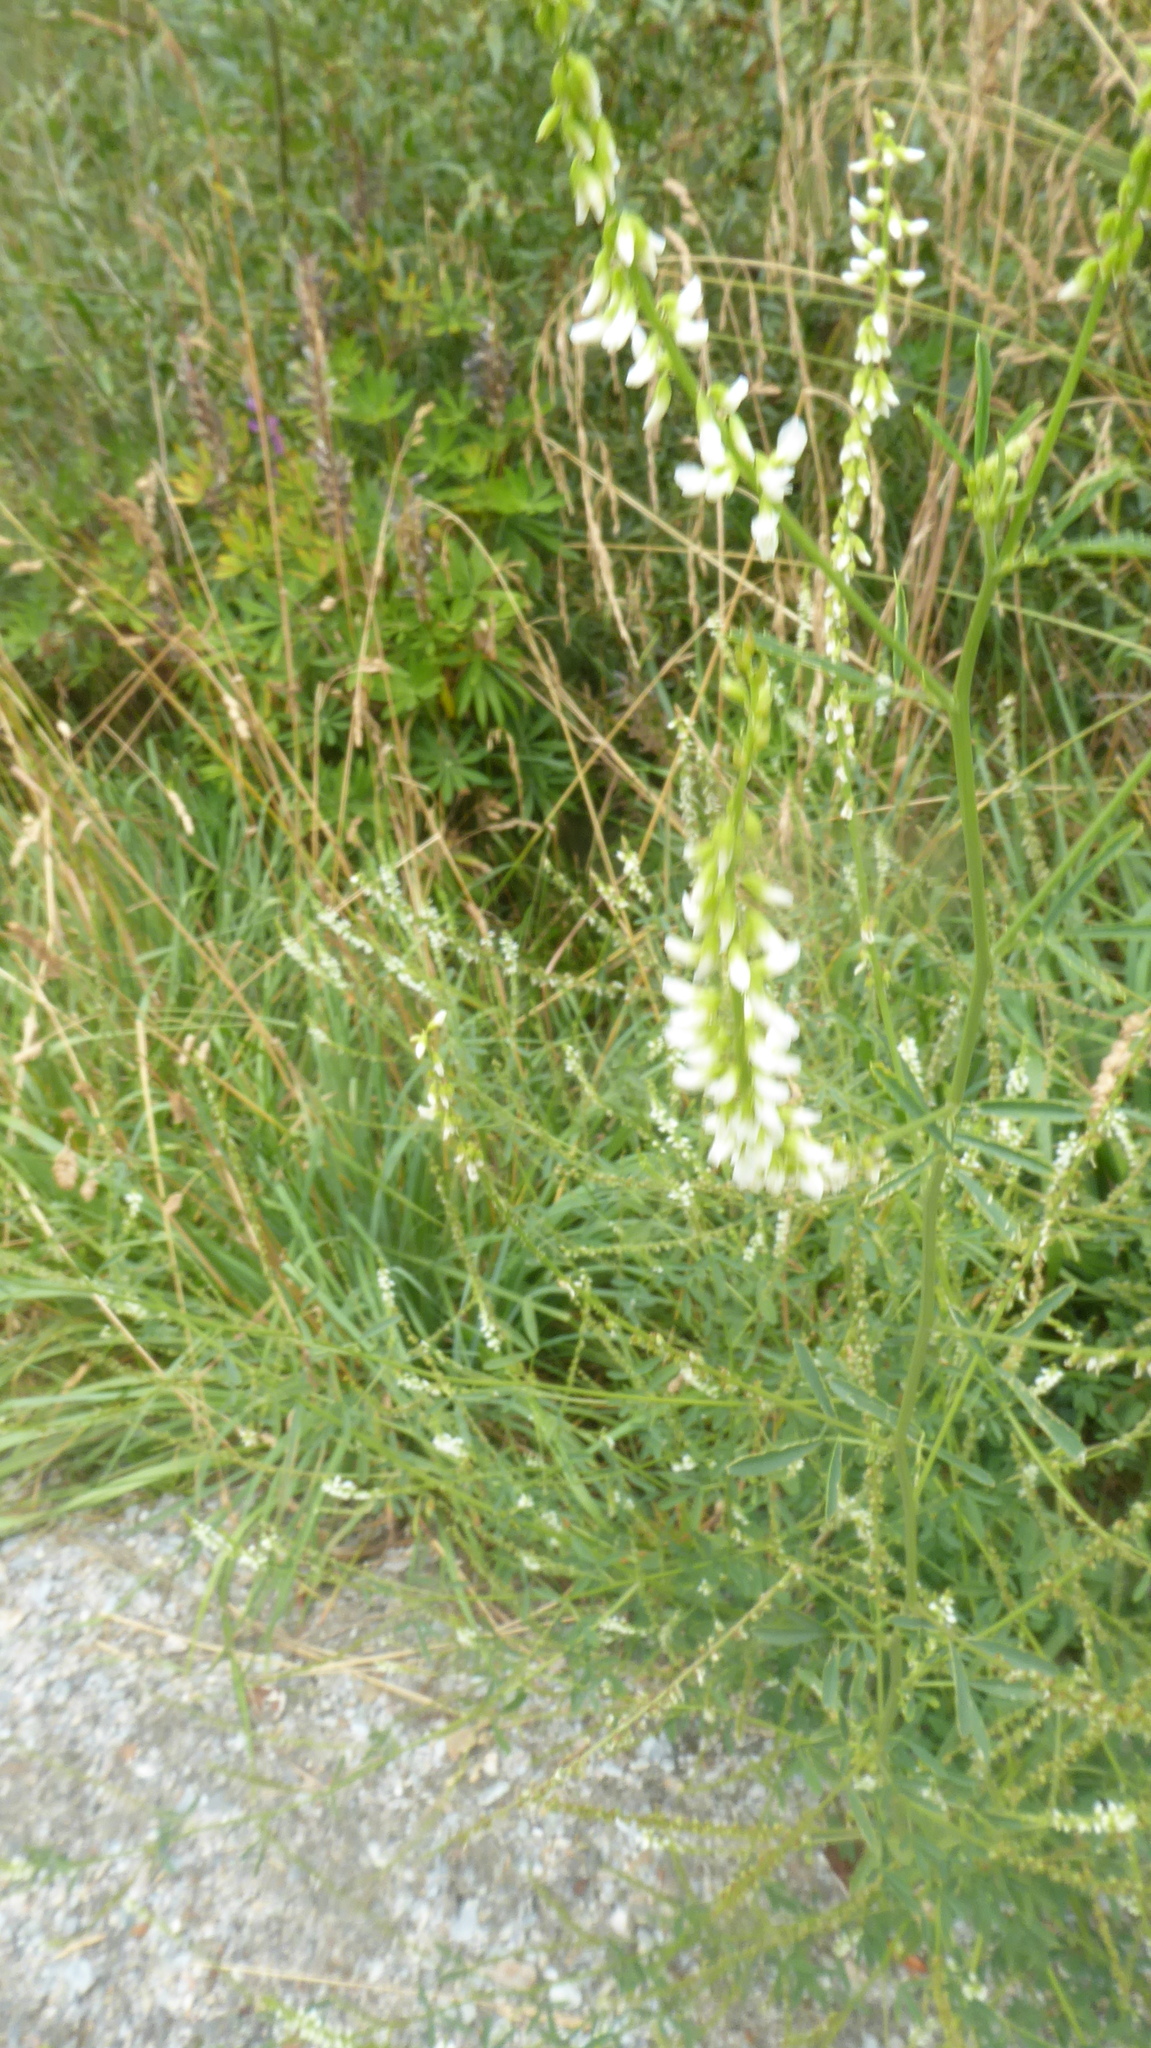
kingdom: Plantae
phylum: Tracheophyta
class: Magnoliopsida
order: Fabales
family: Fabaceae
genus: Melilotus
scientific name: Melilotus albus
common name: White melilot
